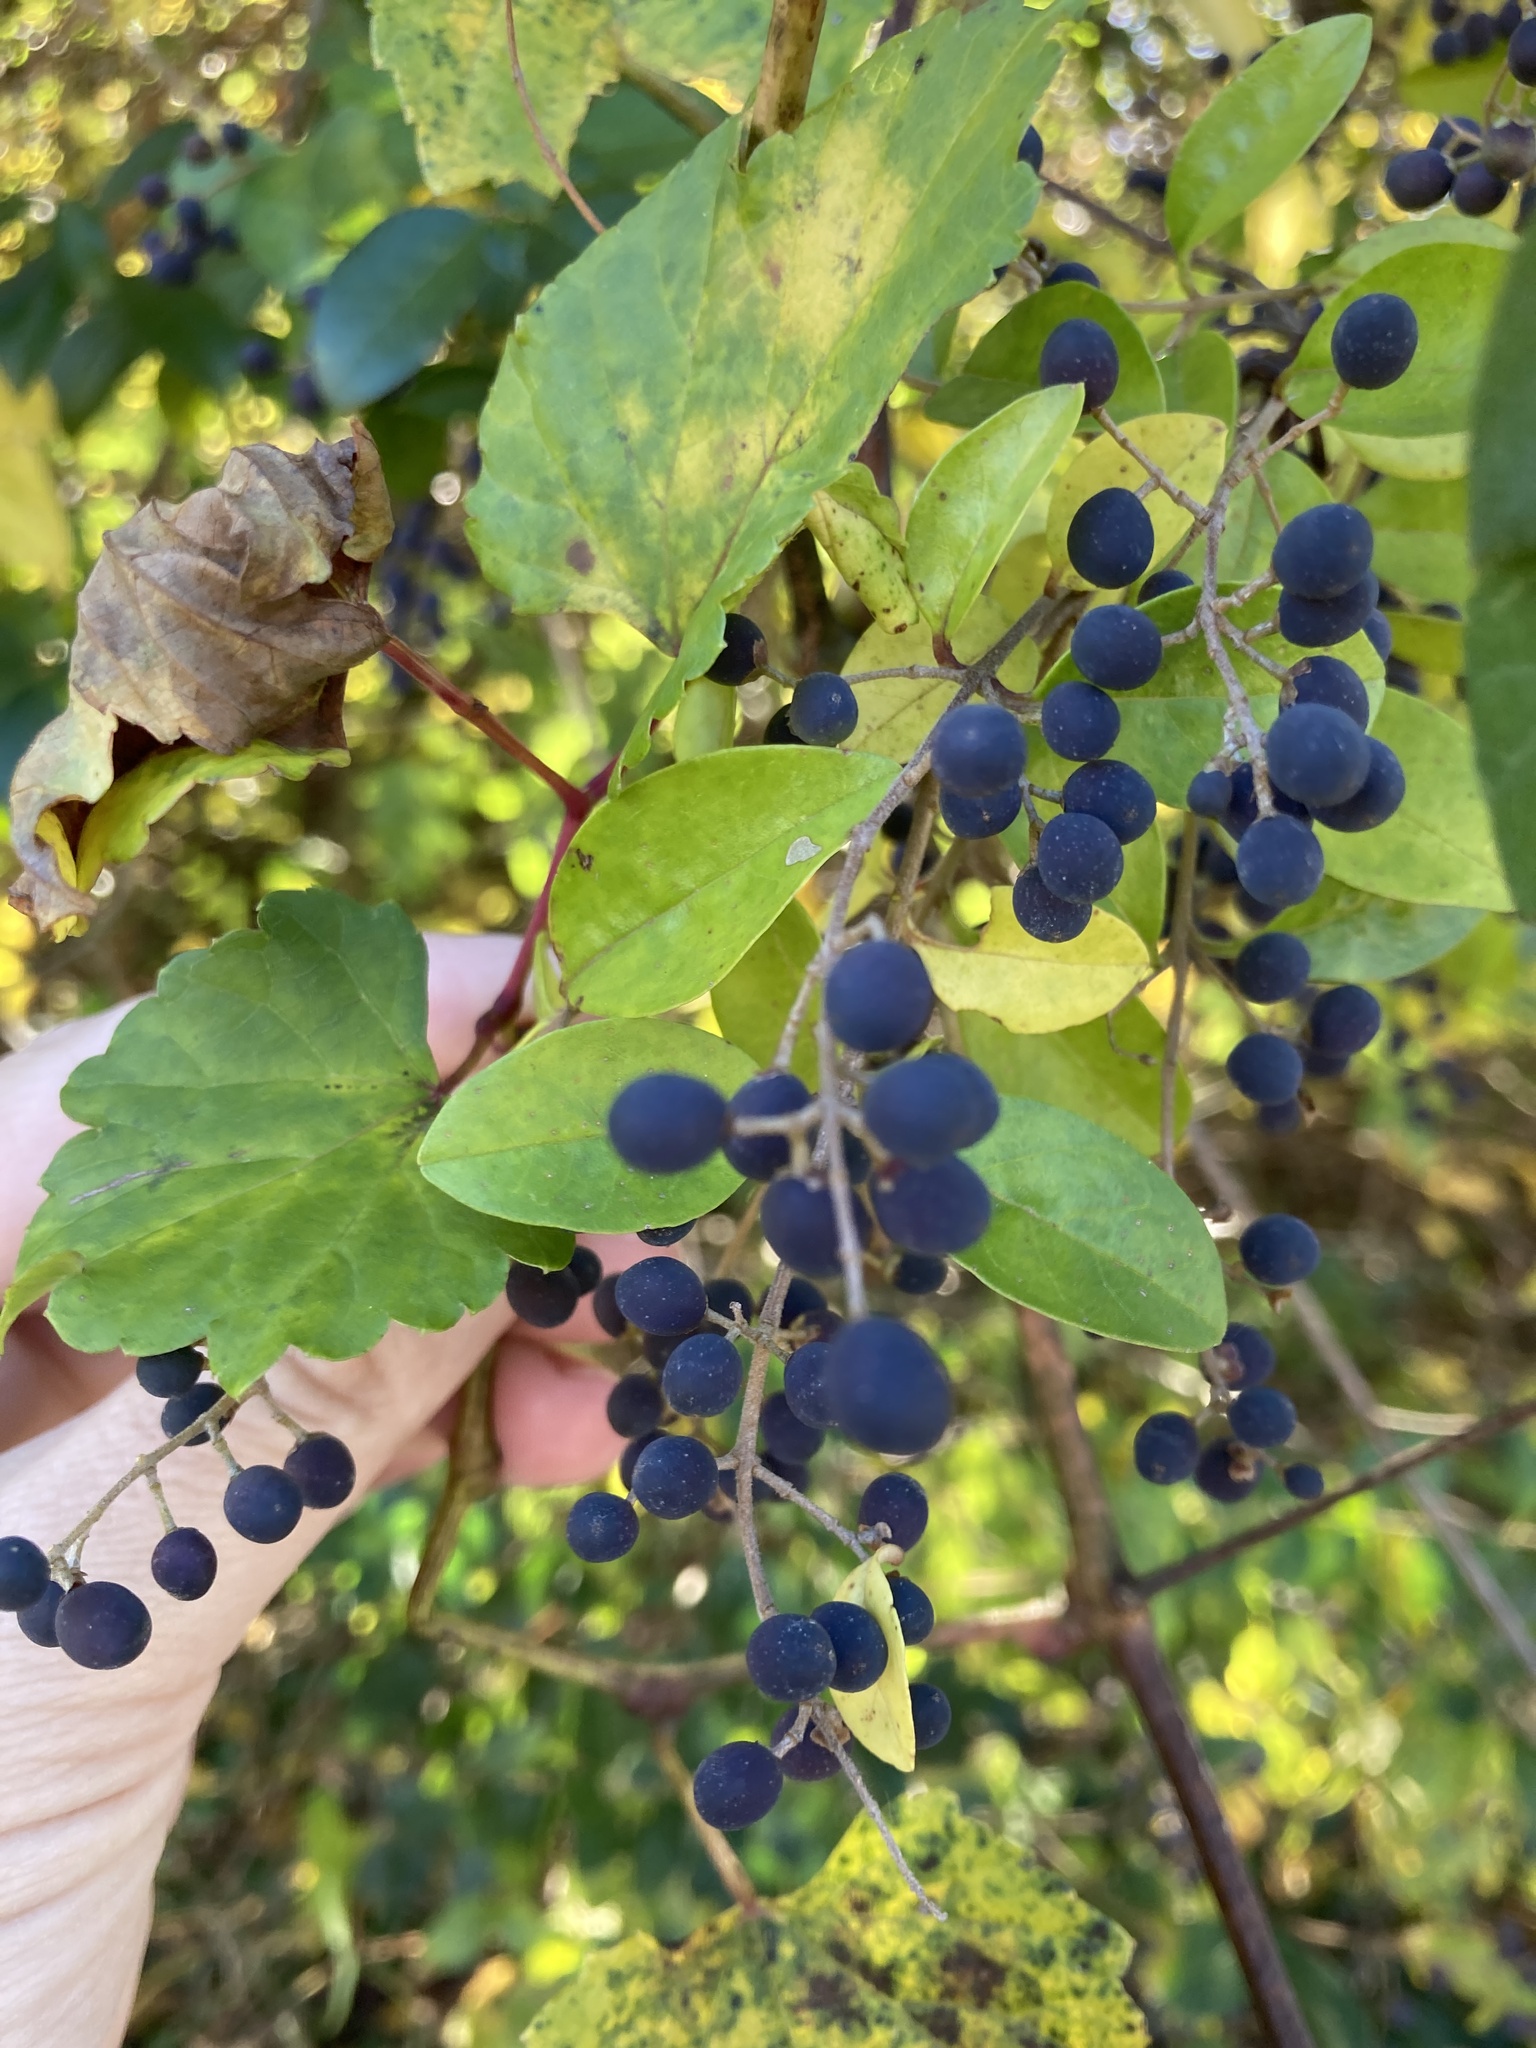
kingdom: Plantae
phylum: Tracheophyta
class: Magnoliopsida
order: Lamiales
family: Oleaceae
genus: Ligustrum
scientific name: Ligustrum sinense
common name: Chinese privet
